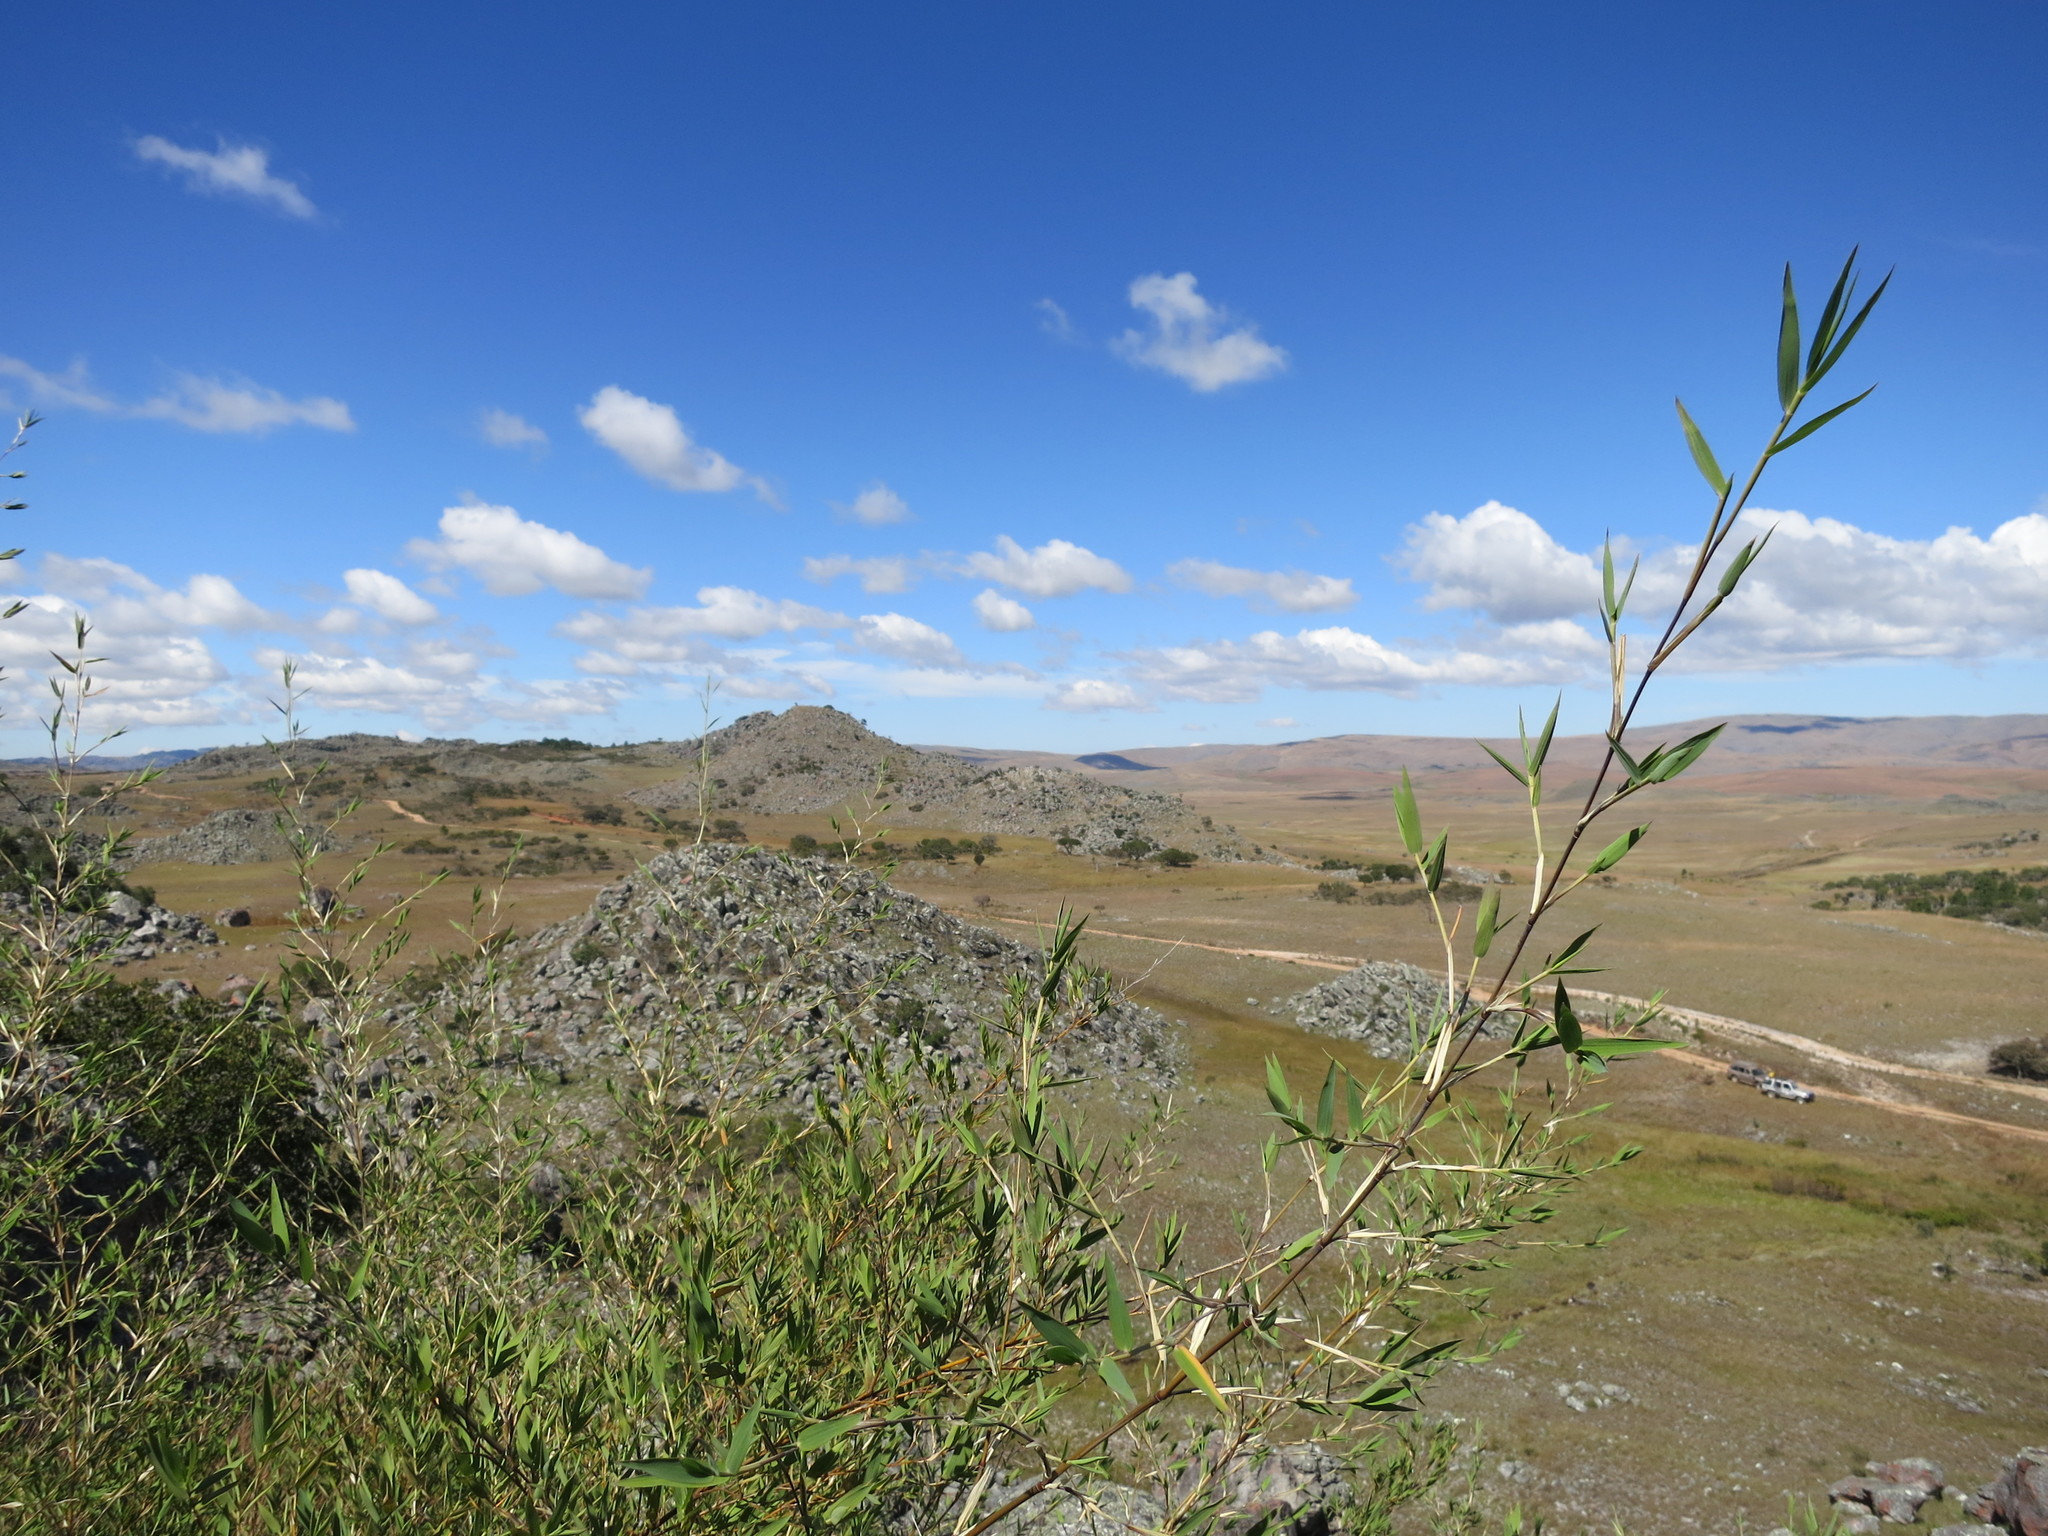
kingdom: Plantae
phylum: Tracheophyta
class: Liliopsida
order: Poales
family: Poaceae
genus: Oldeania
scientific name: Oldeania ibityensis
